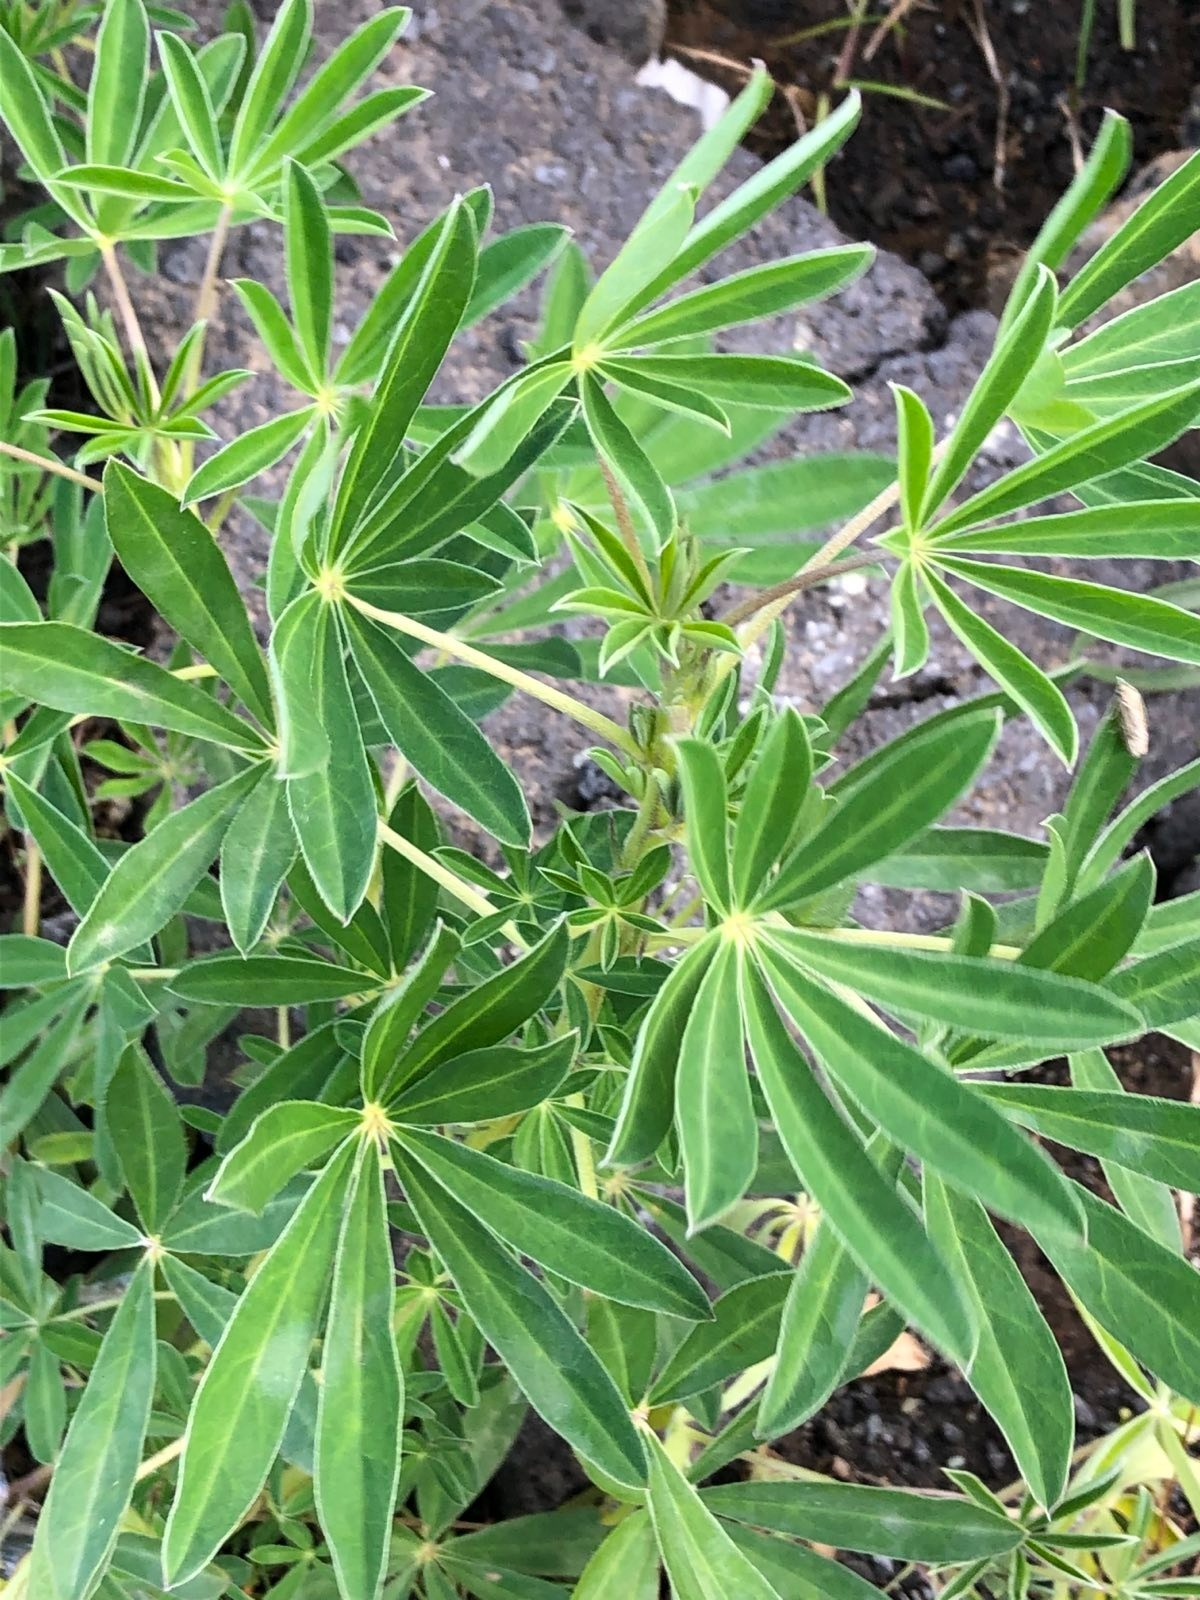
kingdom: Plantae
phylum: Tracheophyta
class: Magnoliopsida
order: Fabales
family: Fabaceae
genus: Lupinus
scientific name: Lupinus nootkatensis
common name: Nootka lupine
